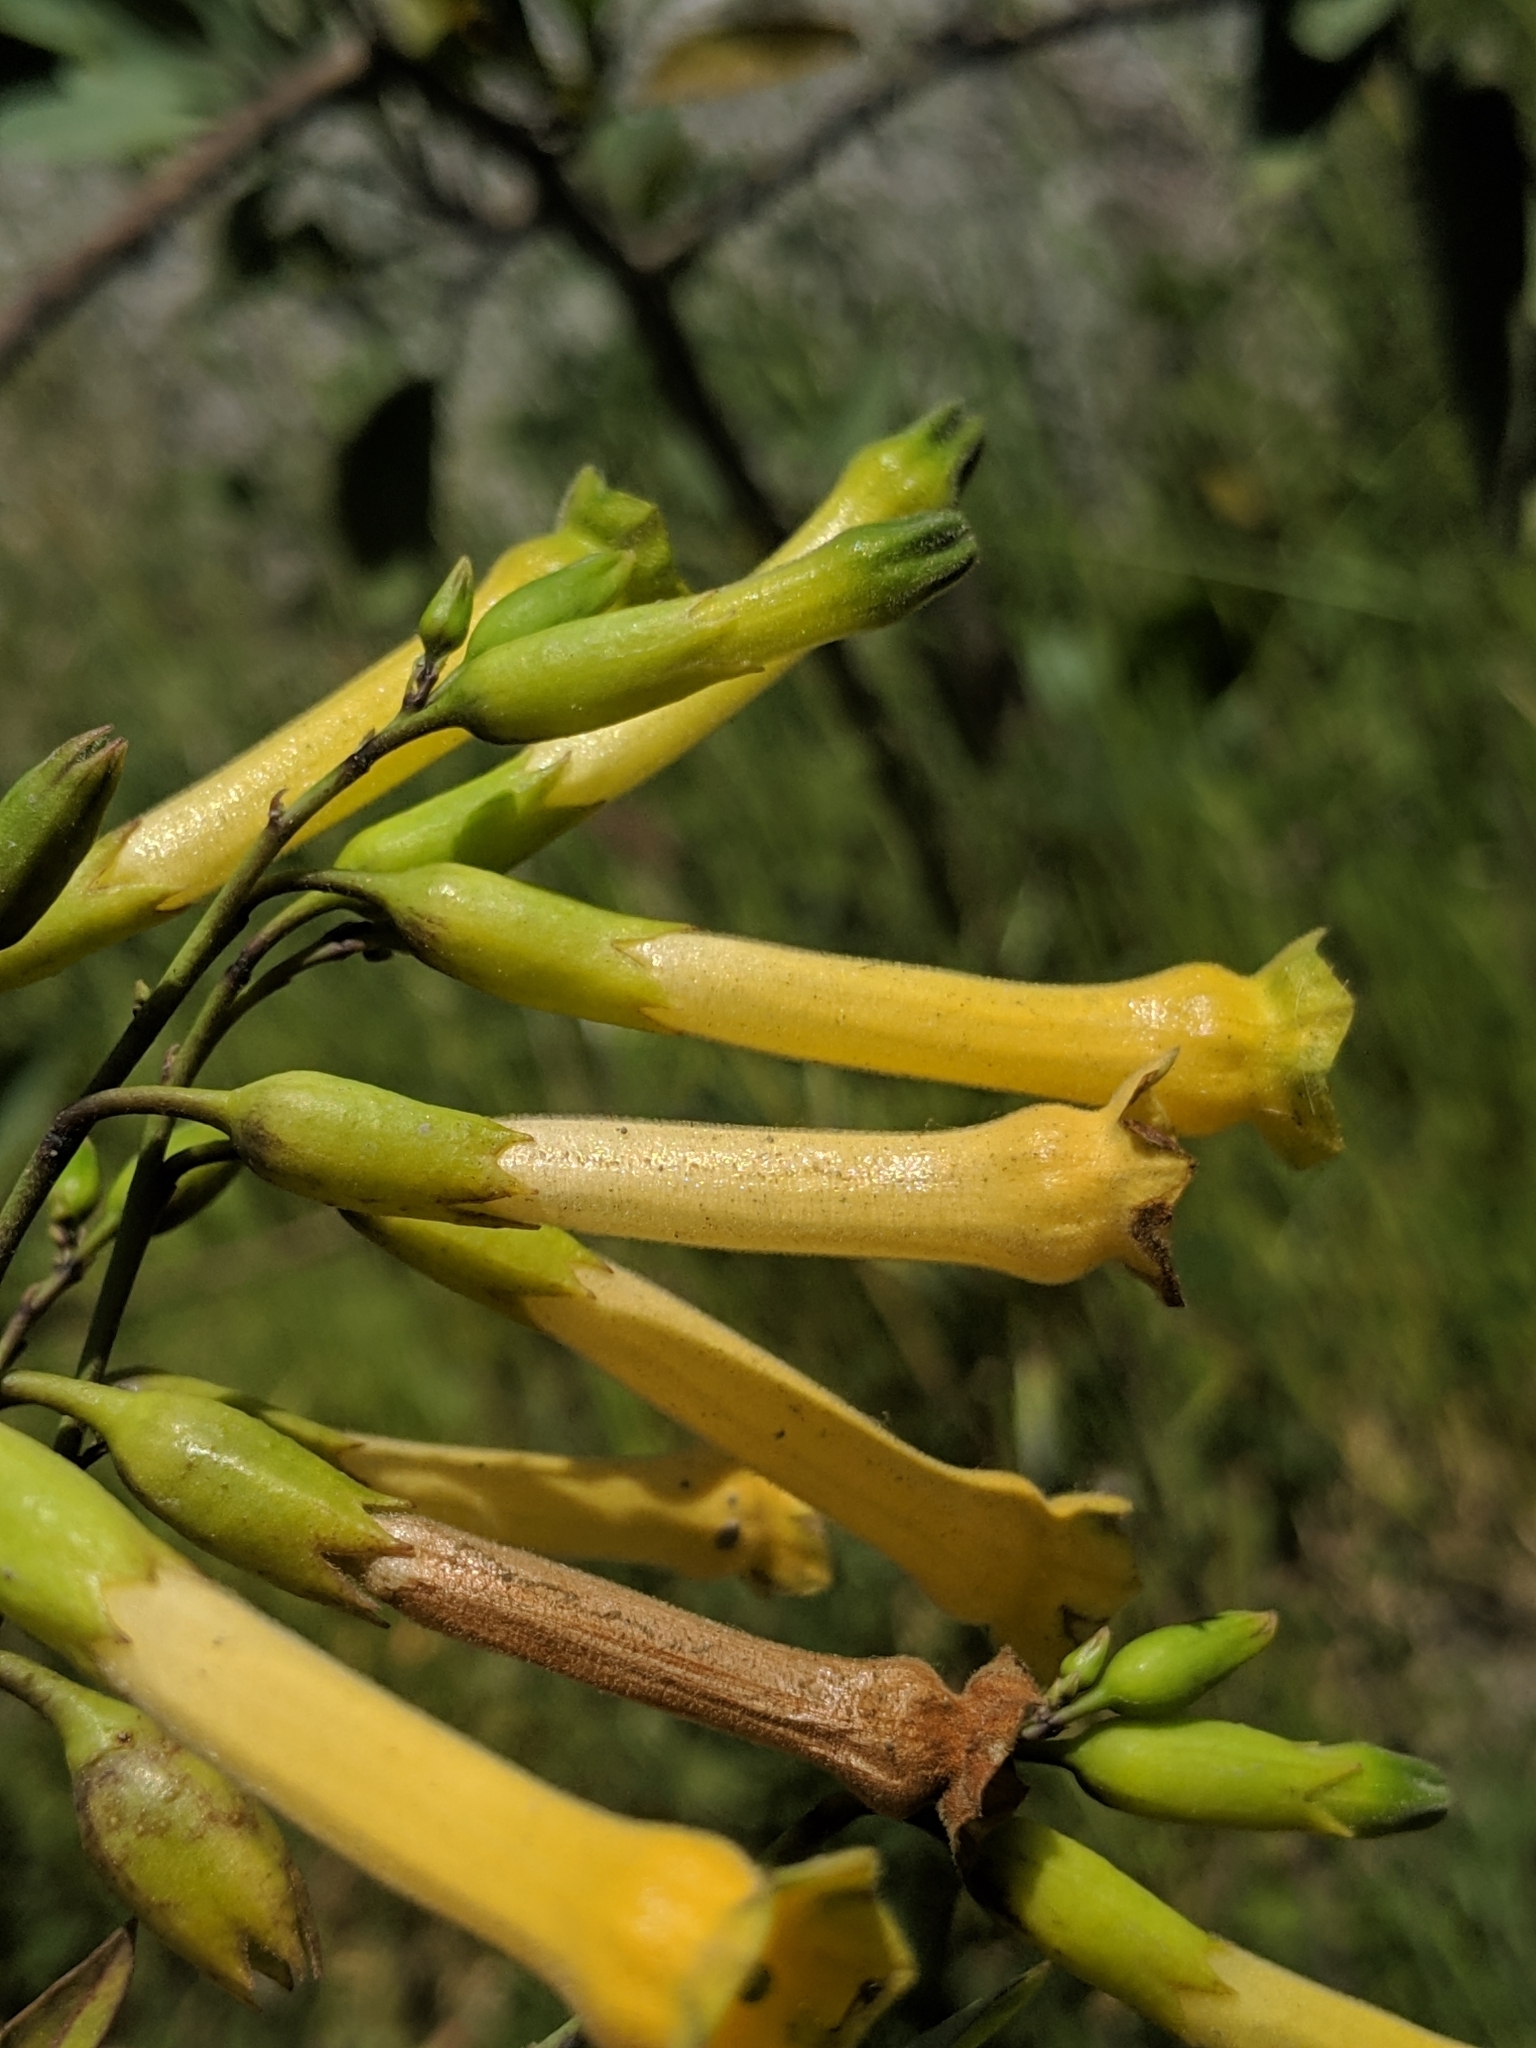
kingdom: Plantae
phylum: Tracheophyta
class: Magnoliopsida
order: Solanales
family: Solanaceae
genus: Nicotiana
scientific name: Nicotiana glauca
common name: Tree tobacco
